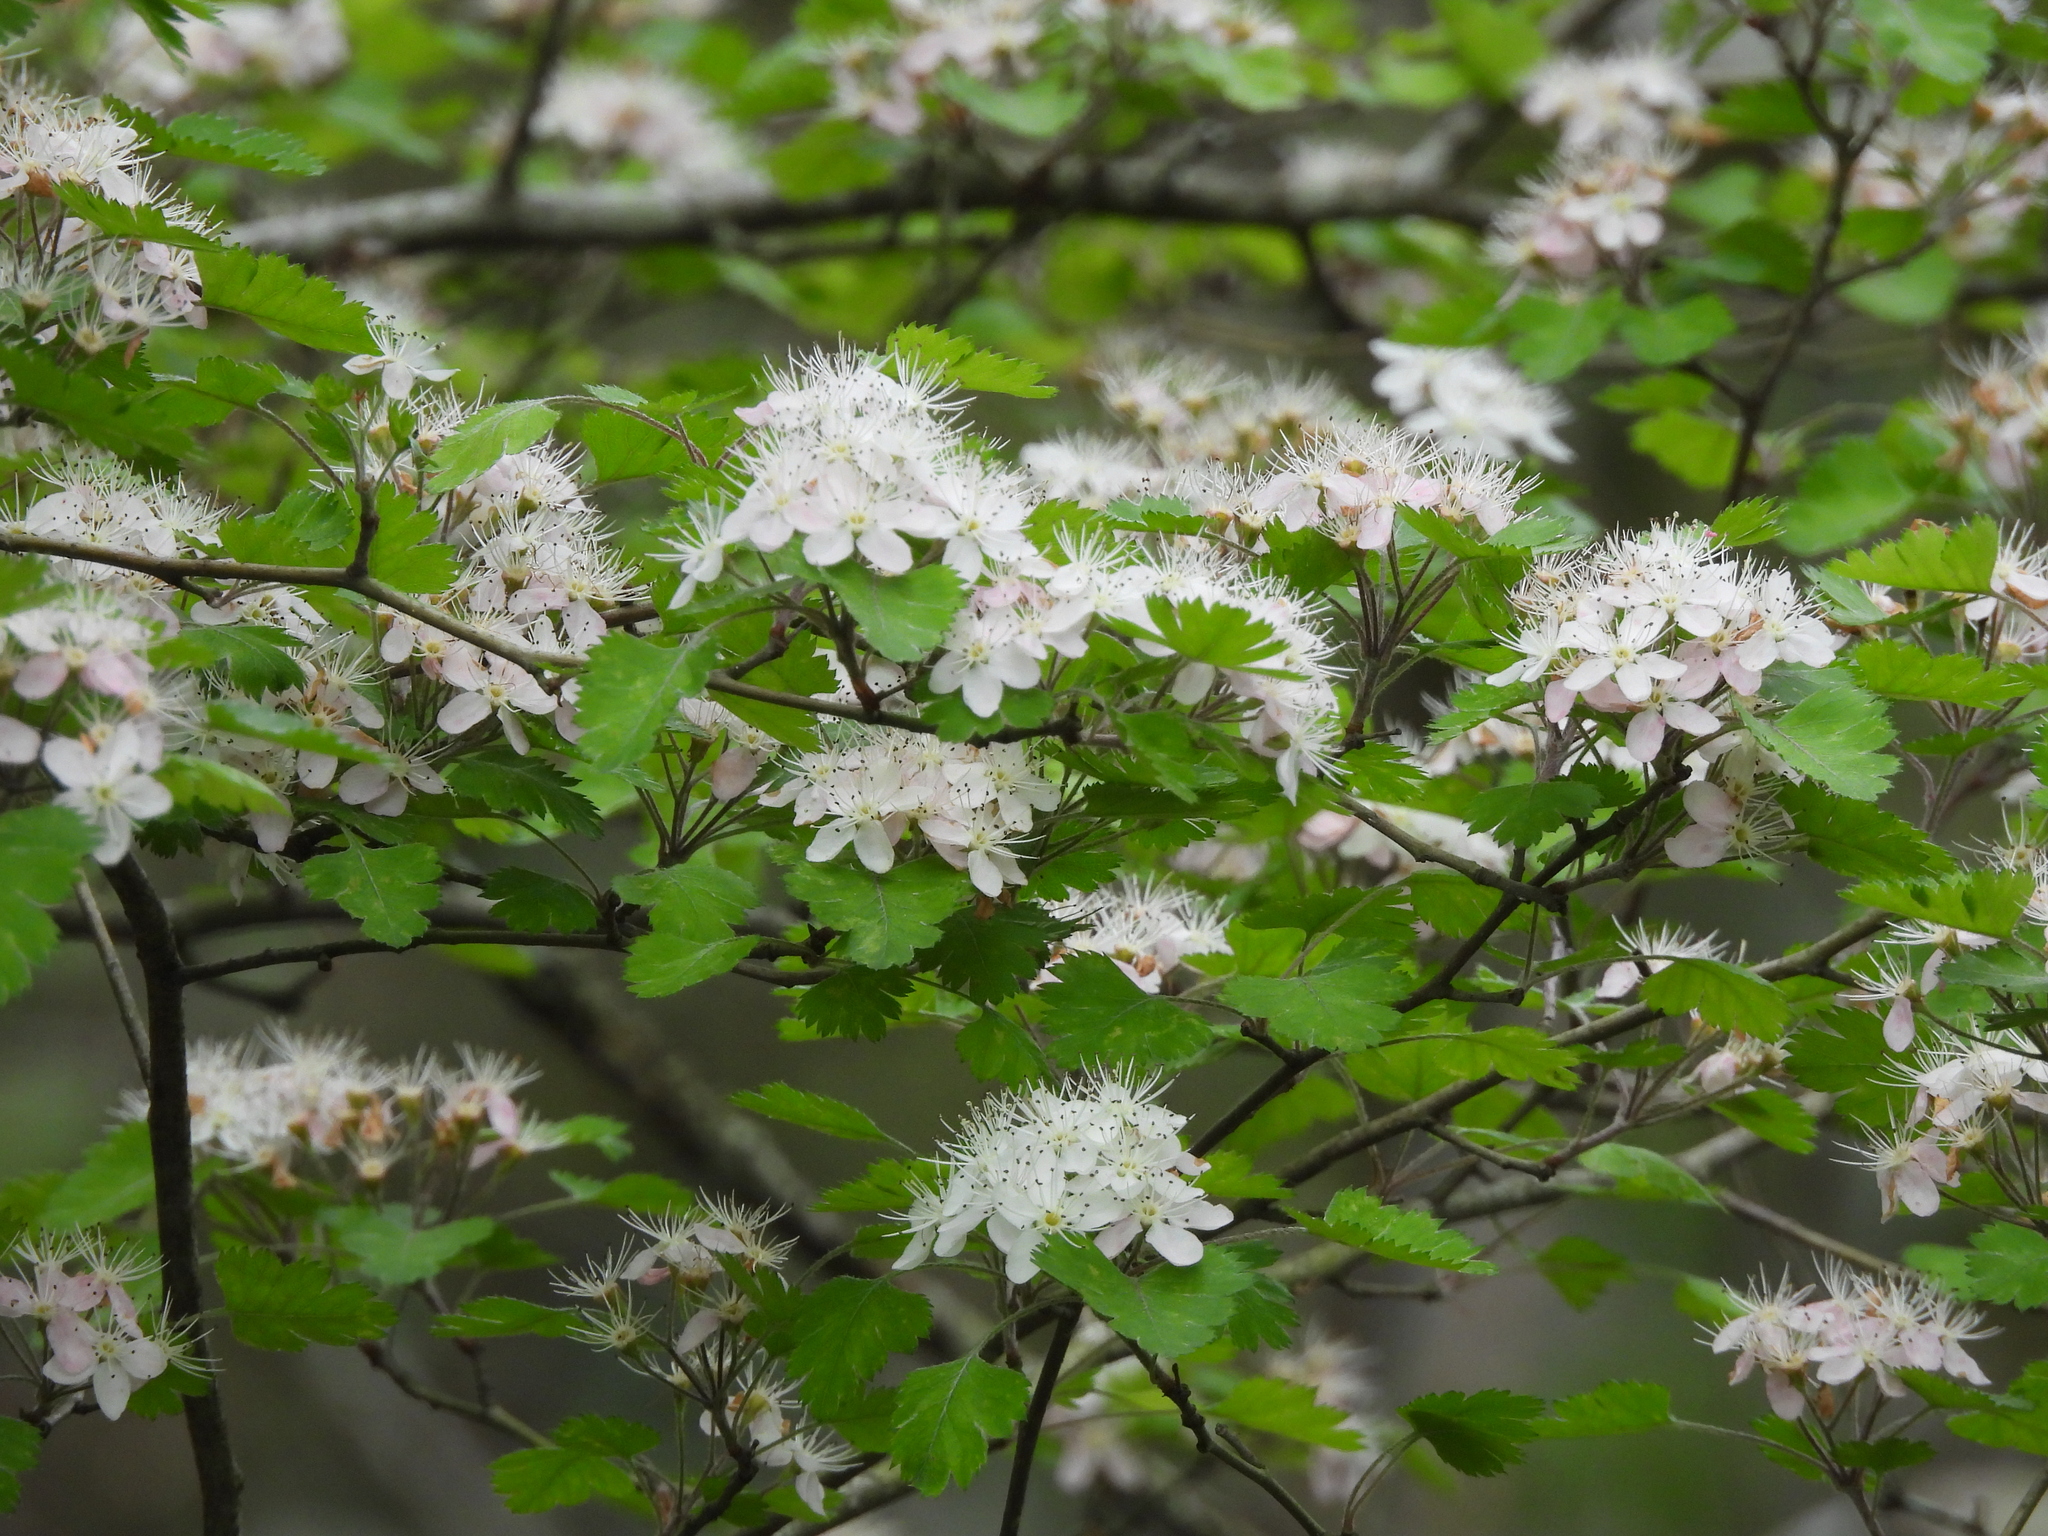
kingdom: Plantae
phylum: Tracheophyta
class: Magnoliopsida
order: Rosales
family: Rosaceae
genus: Crataegus
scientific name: Crataegus marshallii
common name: Parsley-hawthorn
